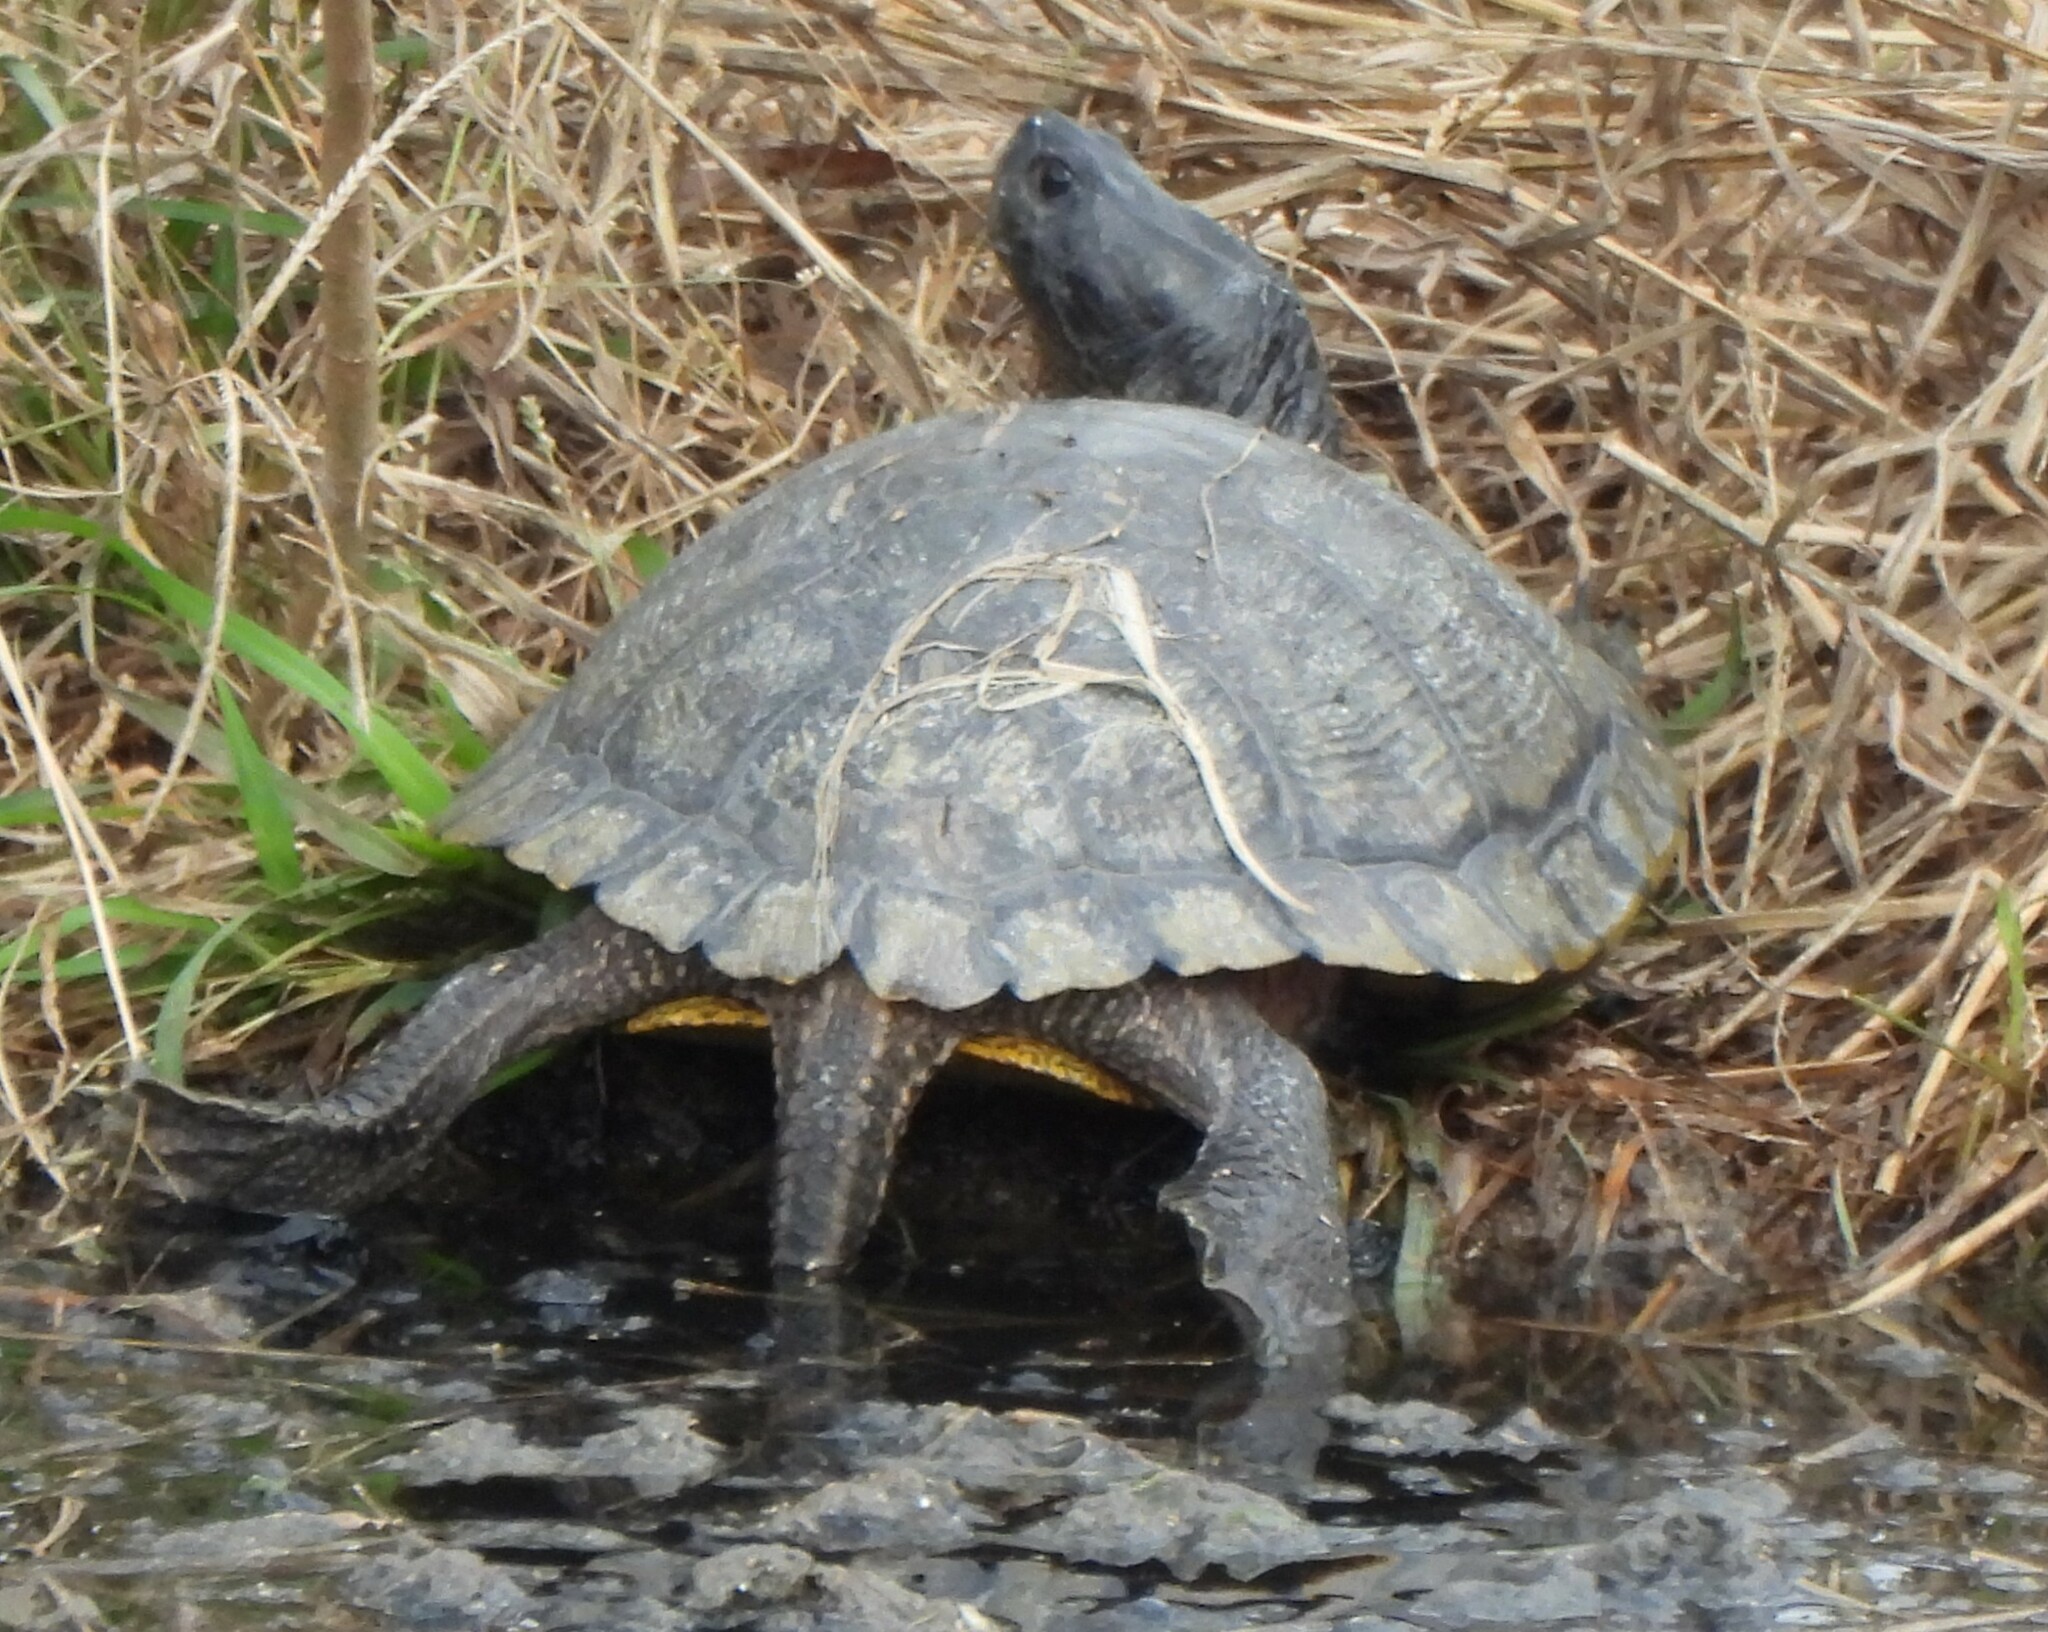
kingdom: Animalia
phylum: Chordata
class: Testudines
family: Emydidae
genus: Trachemys
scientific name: Trachemys scripta
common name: Slider
